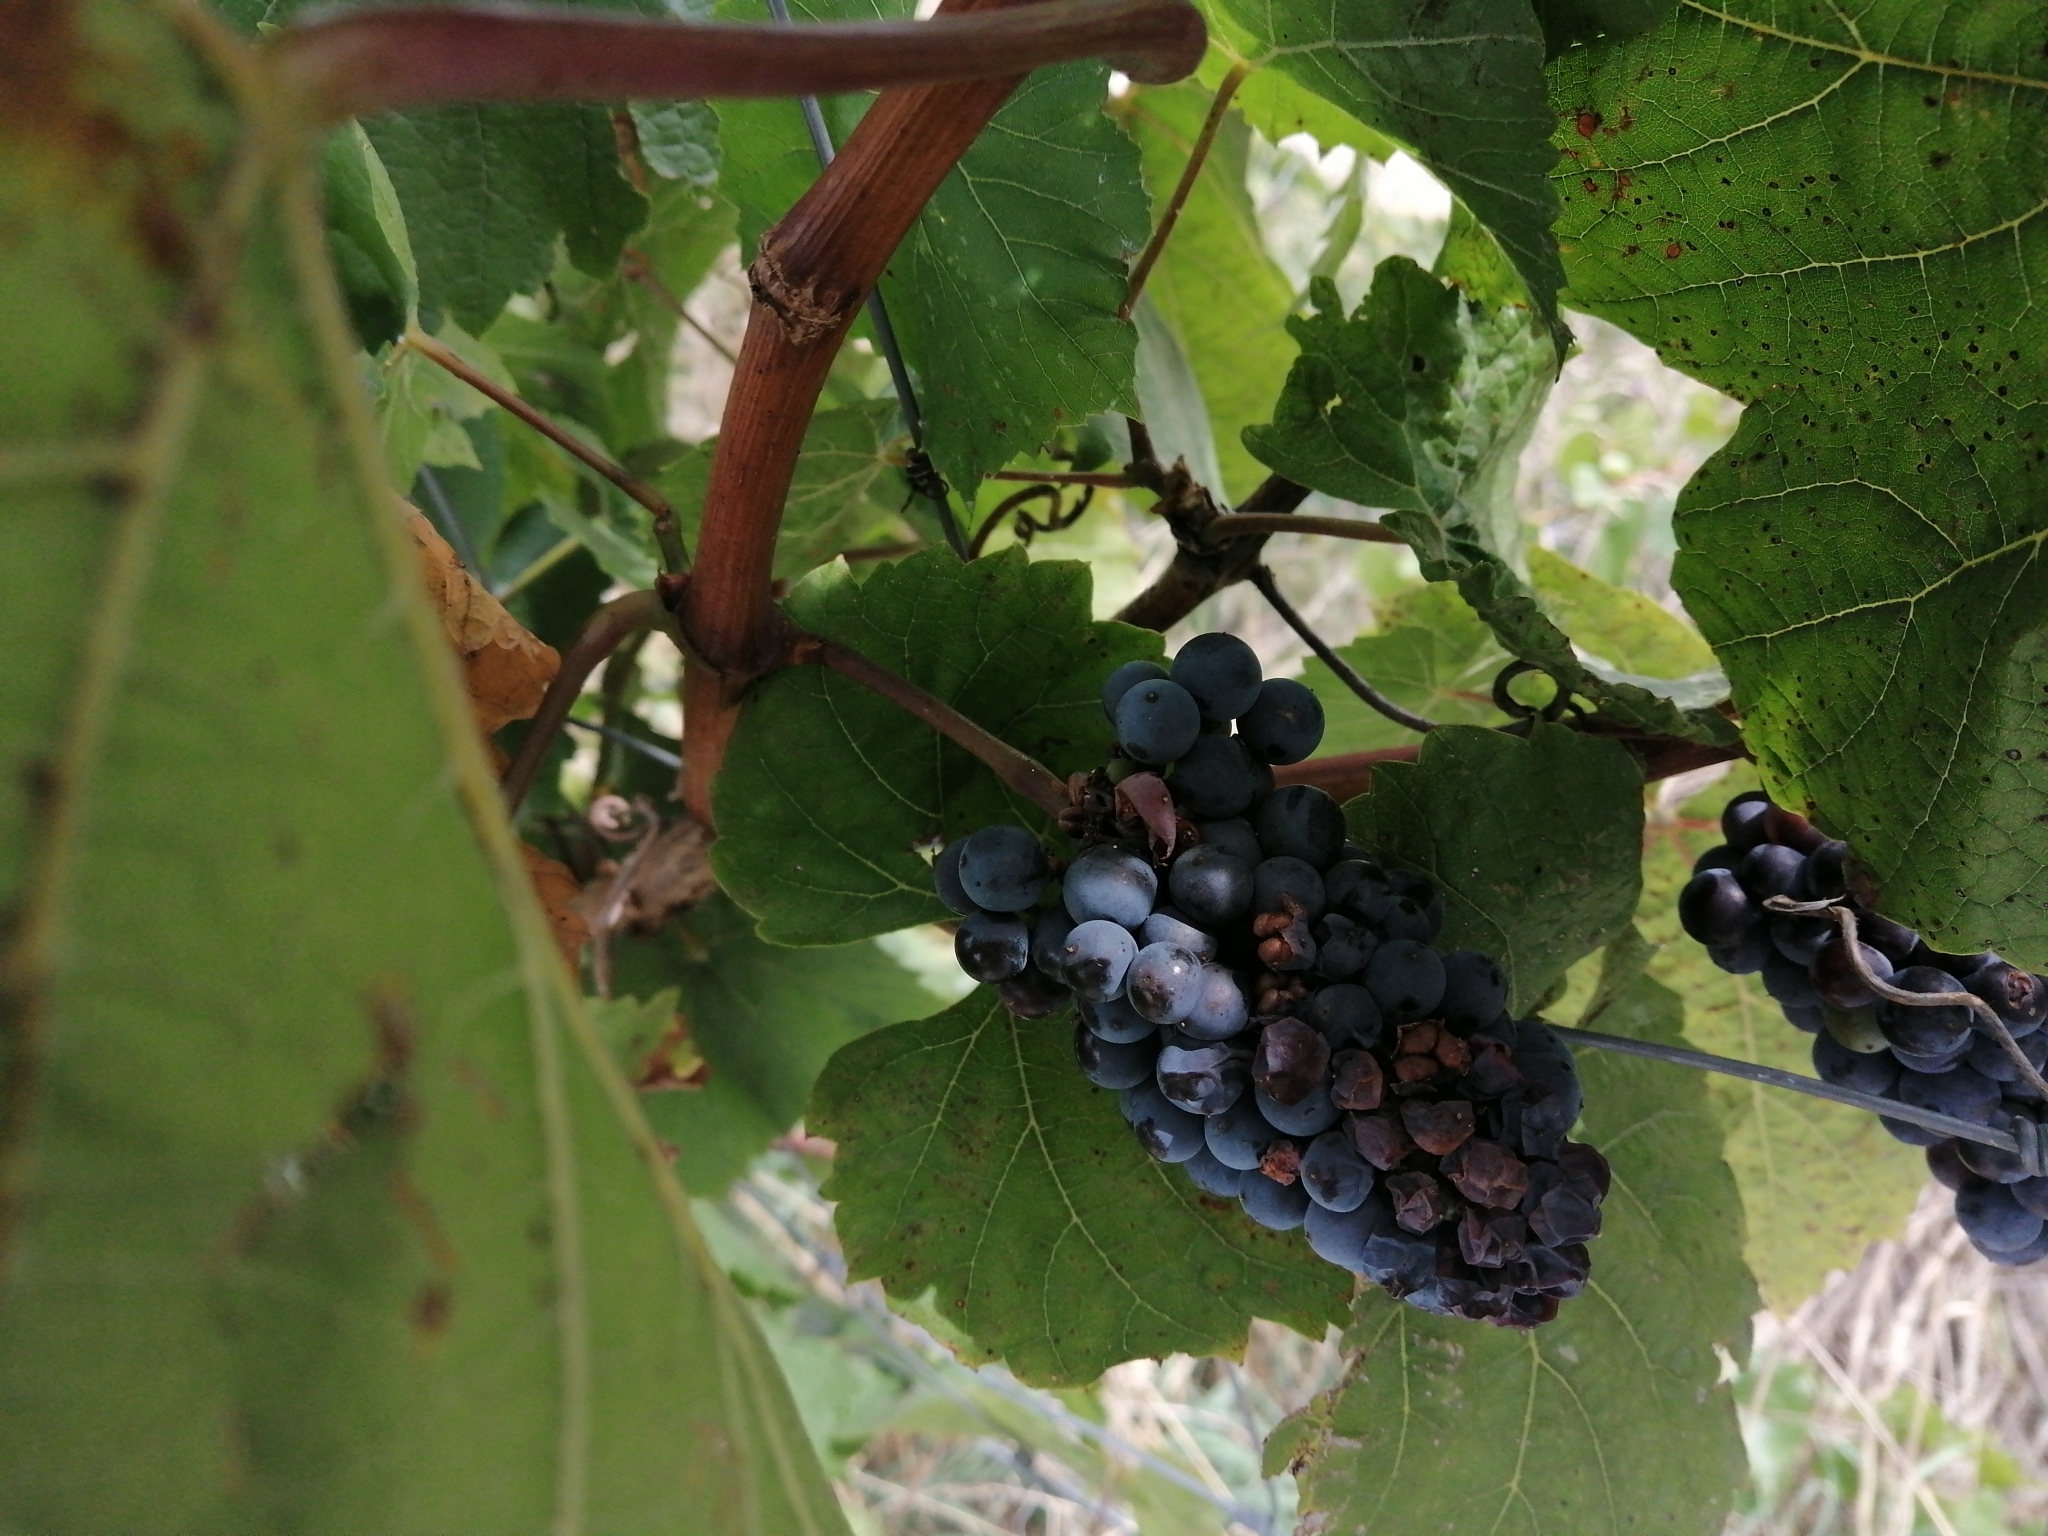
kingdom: Plantae
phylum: Tracheophyta
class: Magnoliopsida
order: Vitales
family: Vitaceae
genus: Vitis
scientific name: Vitis vinifera
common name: Grape-vine
